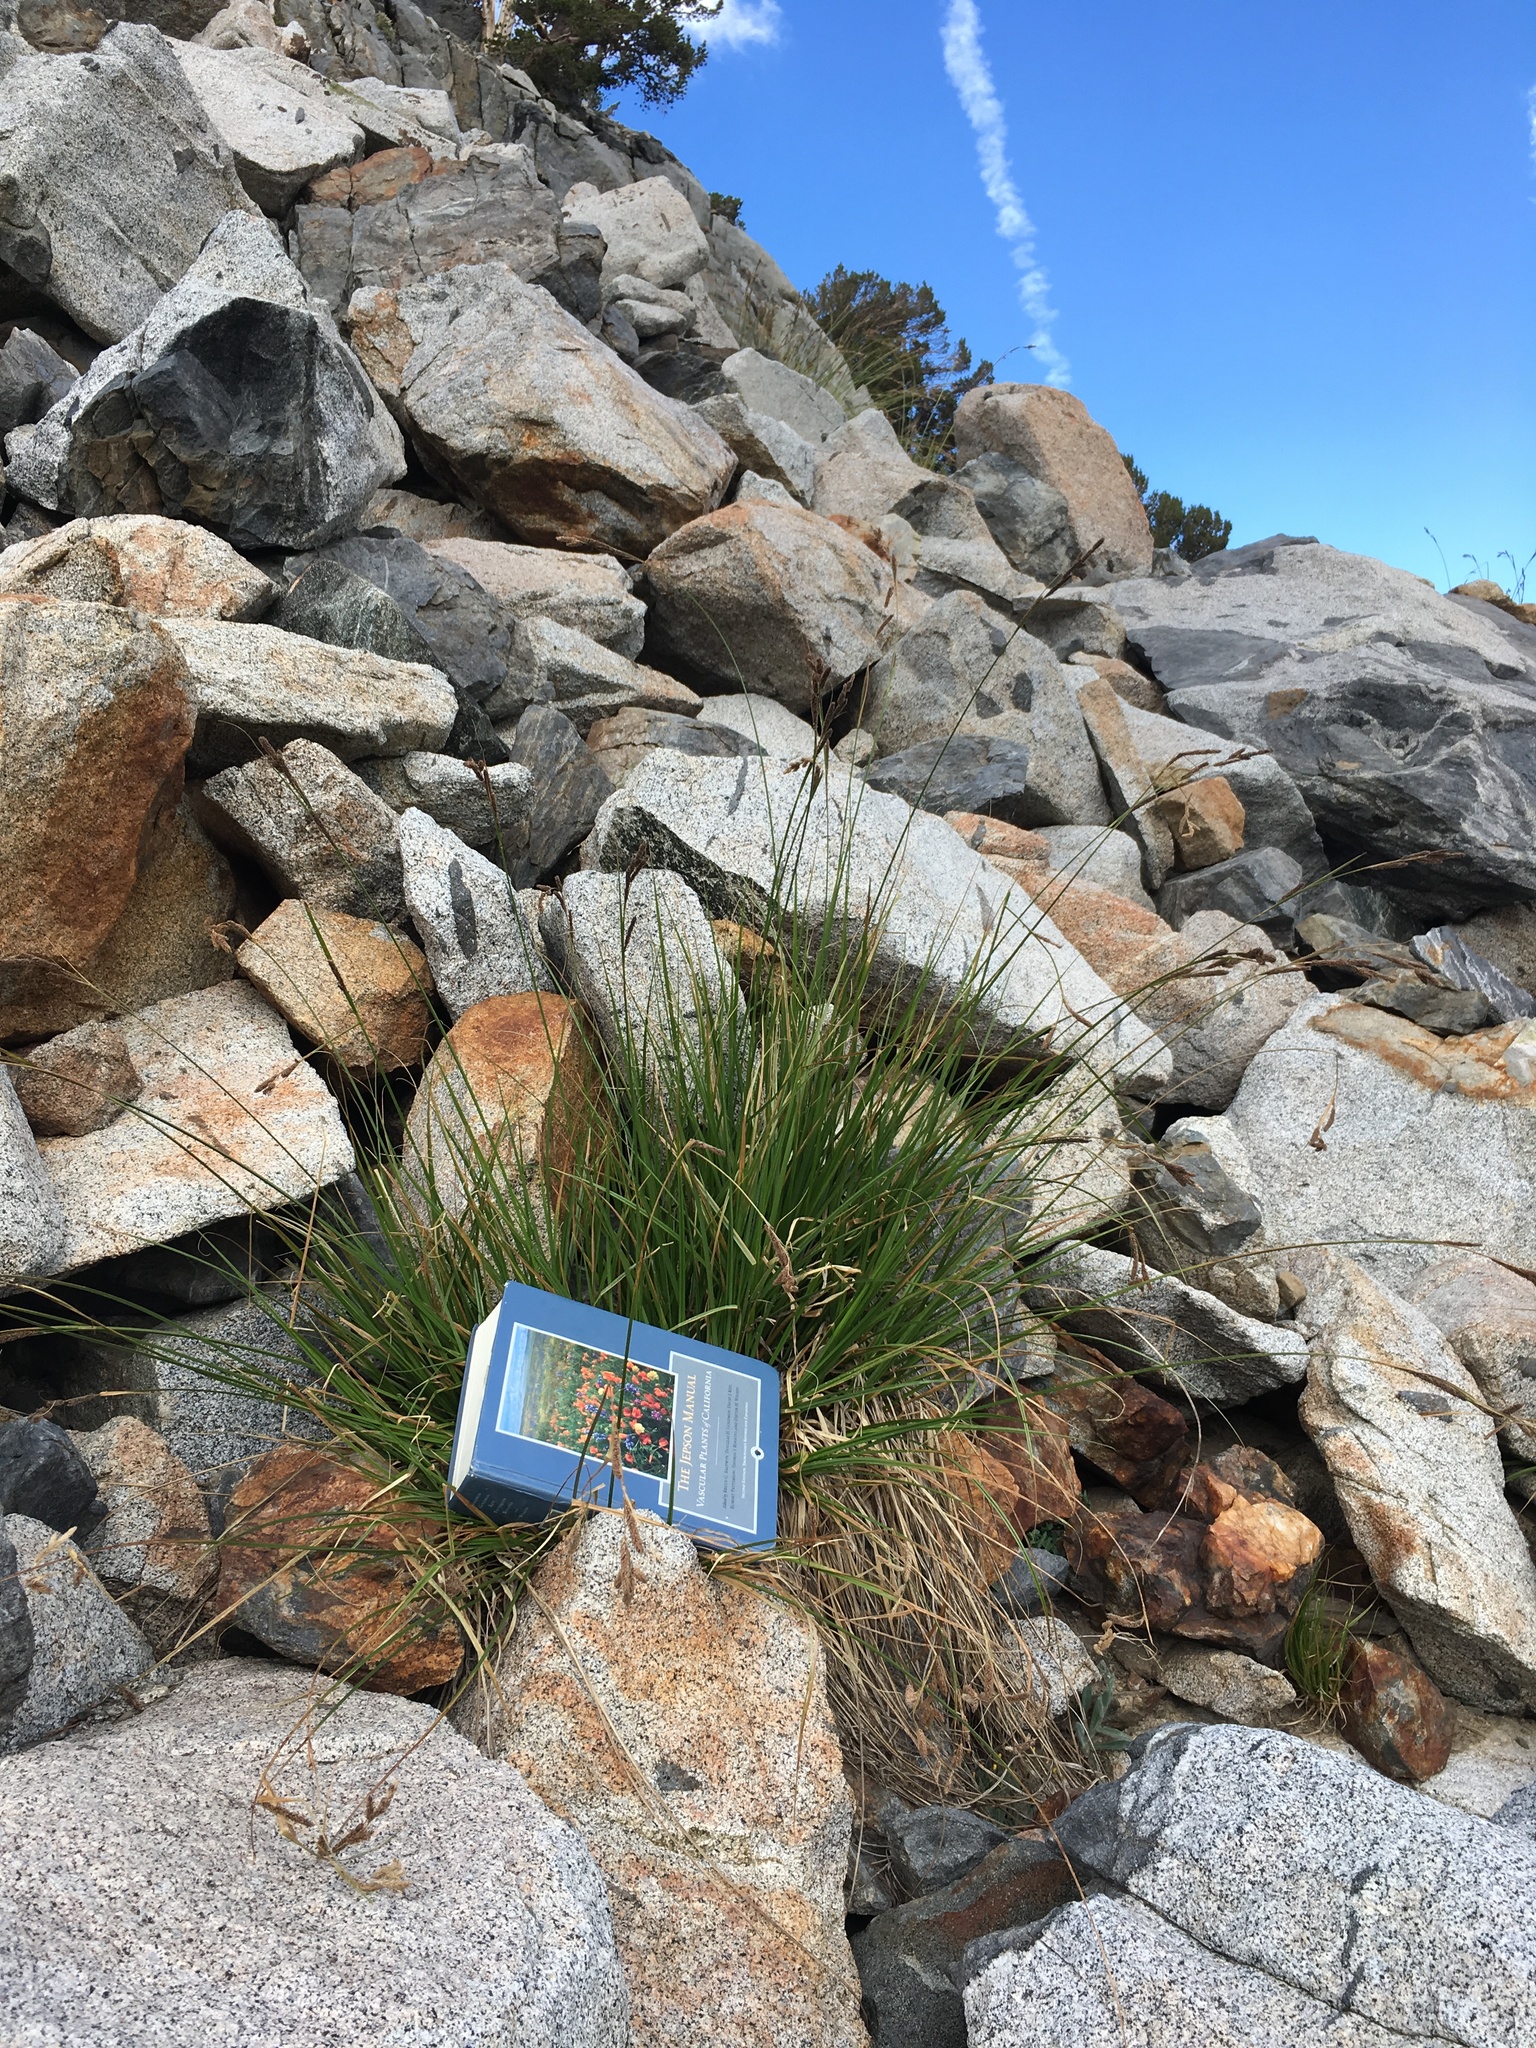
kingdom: Plantae
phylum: Tracheophyta
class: Liliopsida
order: Poales
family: Cyperaceae
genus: Carex
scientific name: Carex congdonii
